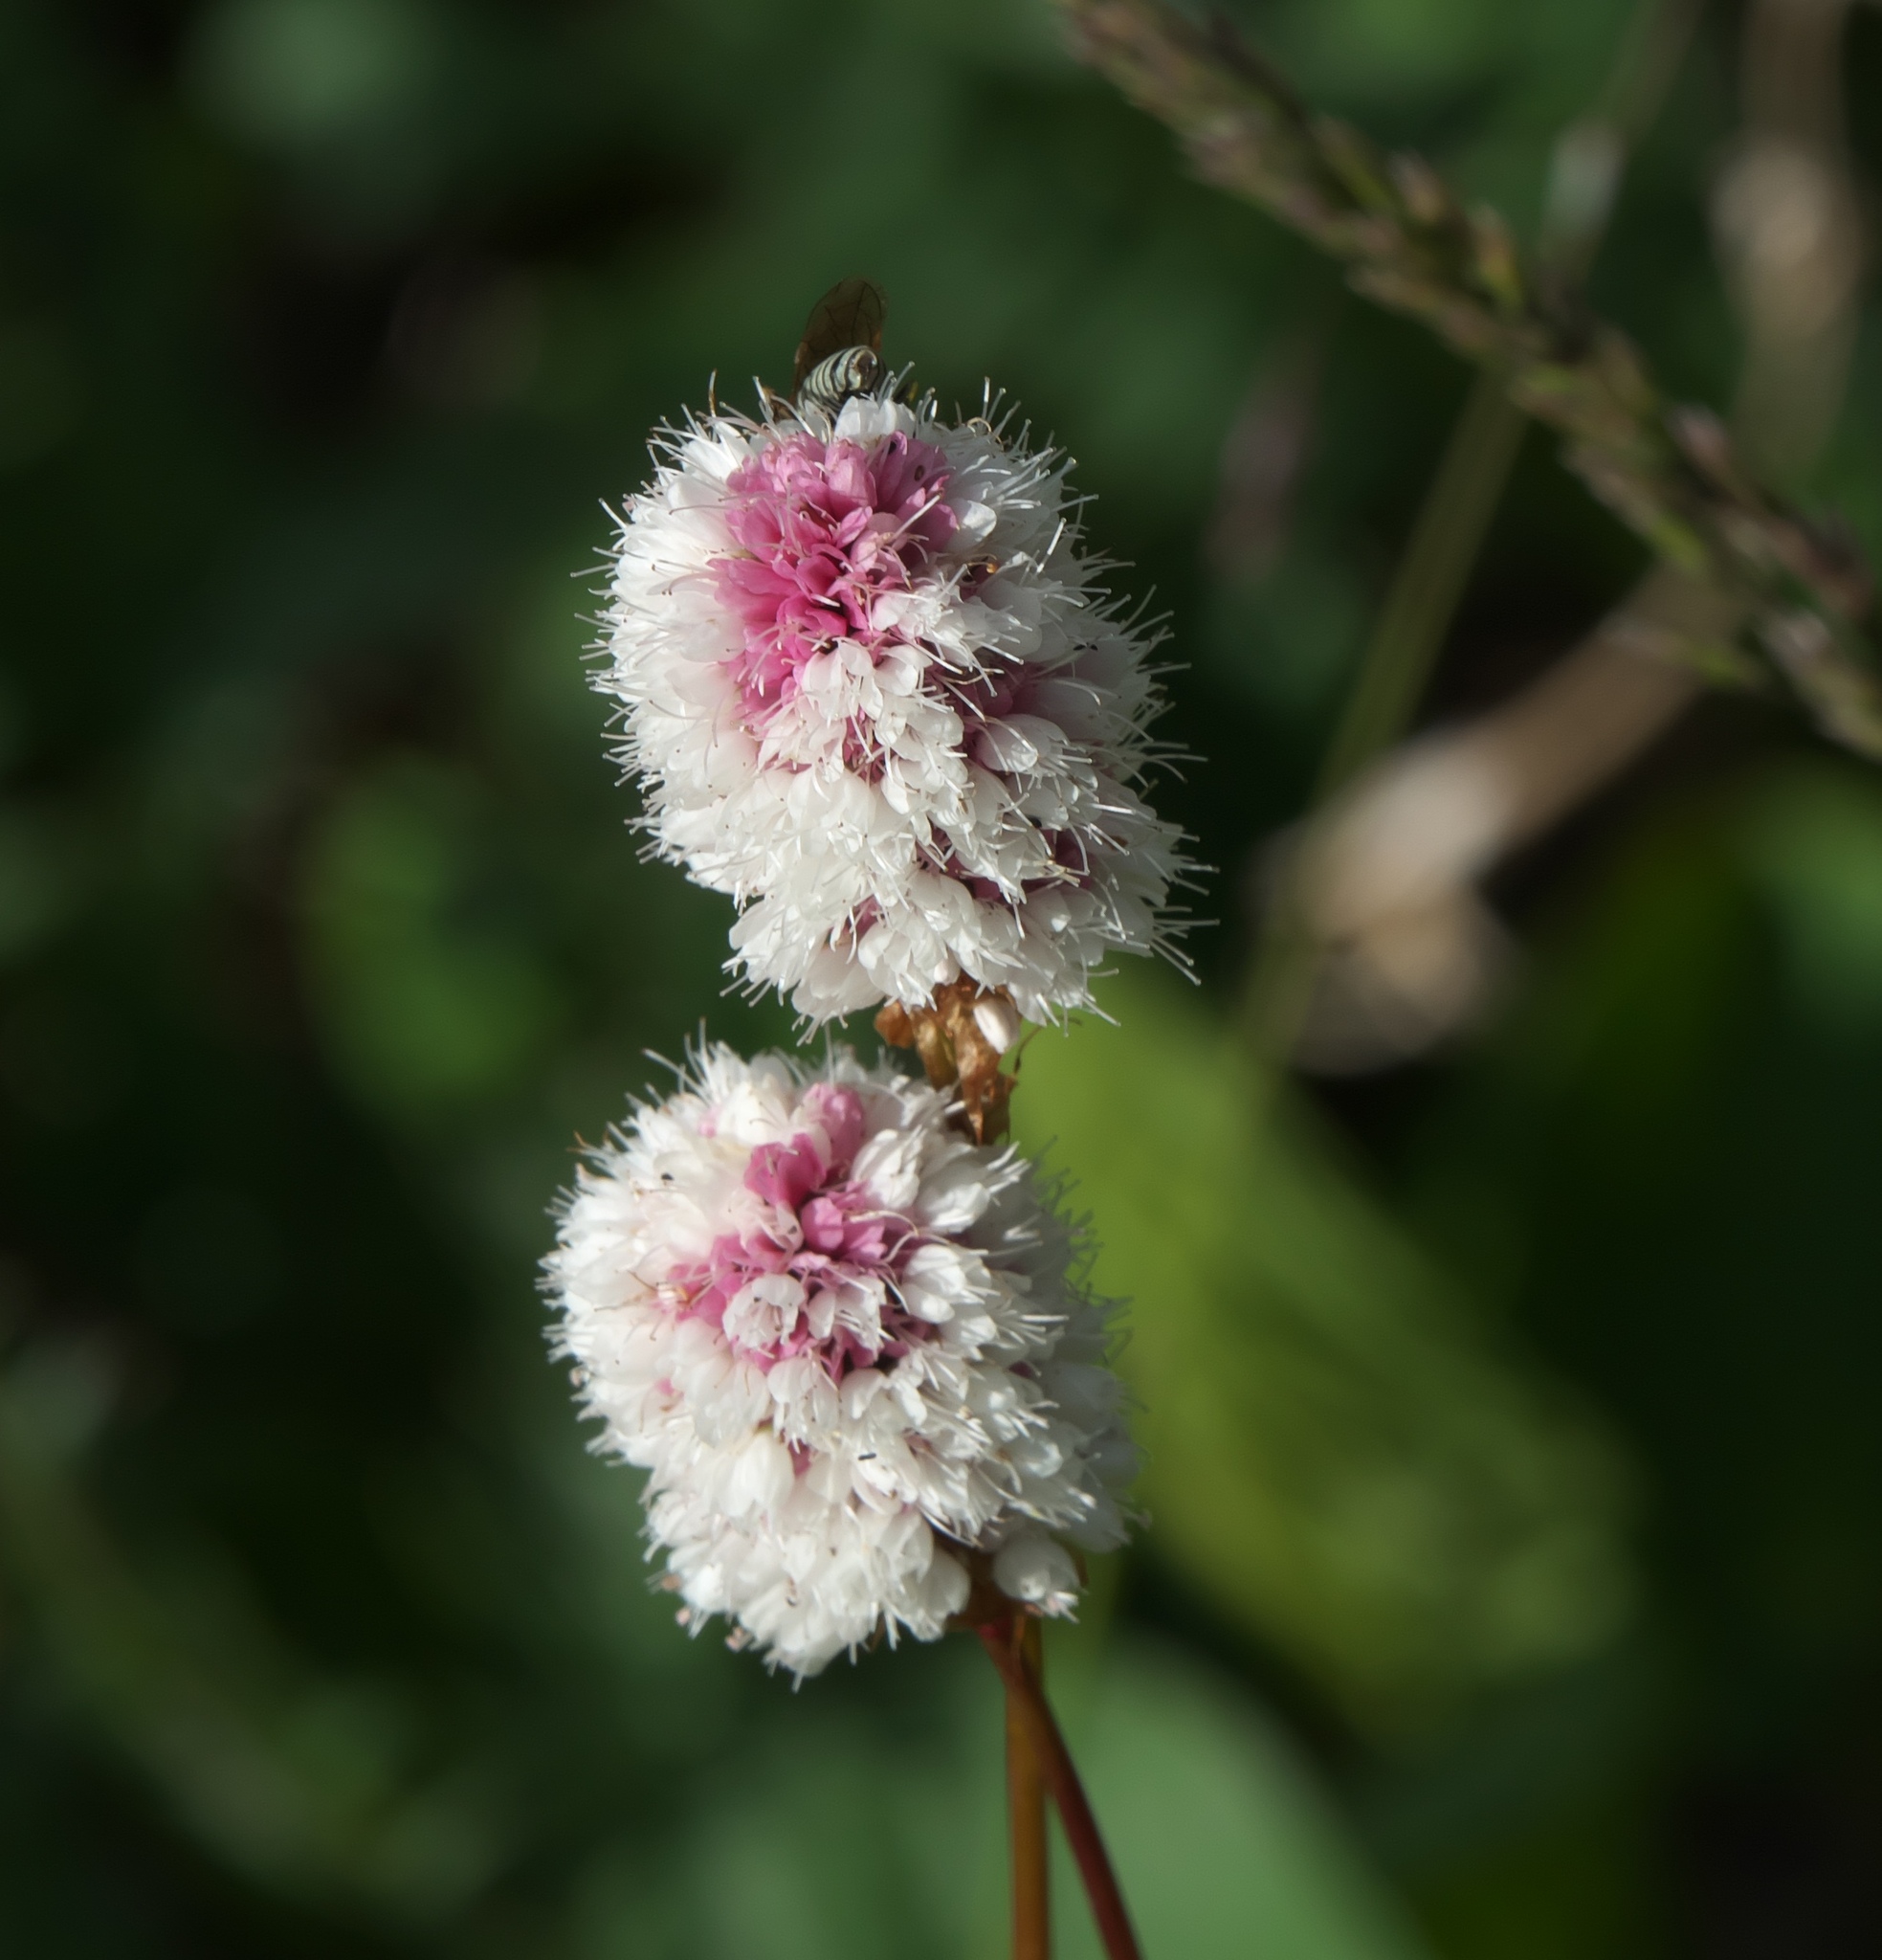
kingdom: Plantae
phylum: Tracheophyta
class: Magnoliopsida
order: Caryophyllales
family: Polygonaceae
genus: Bistorta
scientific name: Bistorta bistortoides
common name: American bistort
